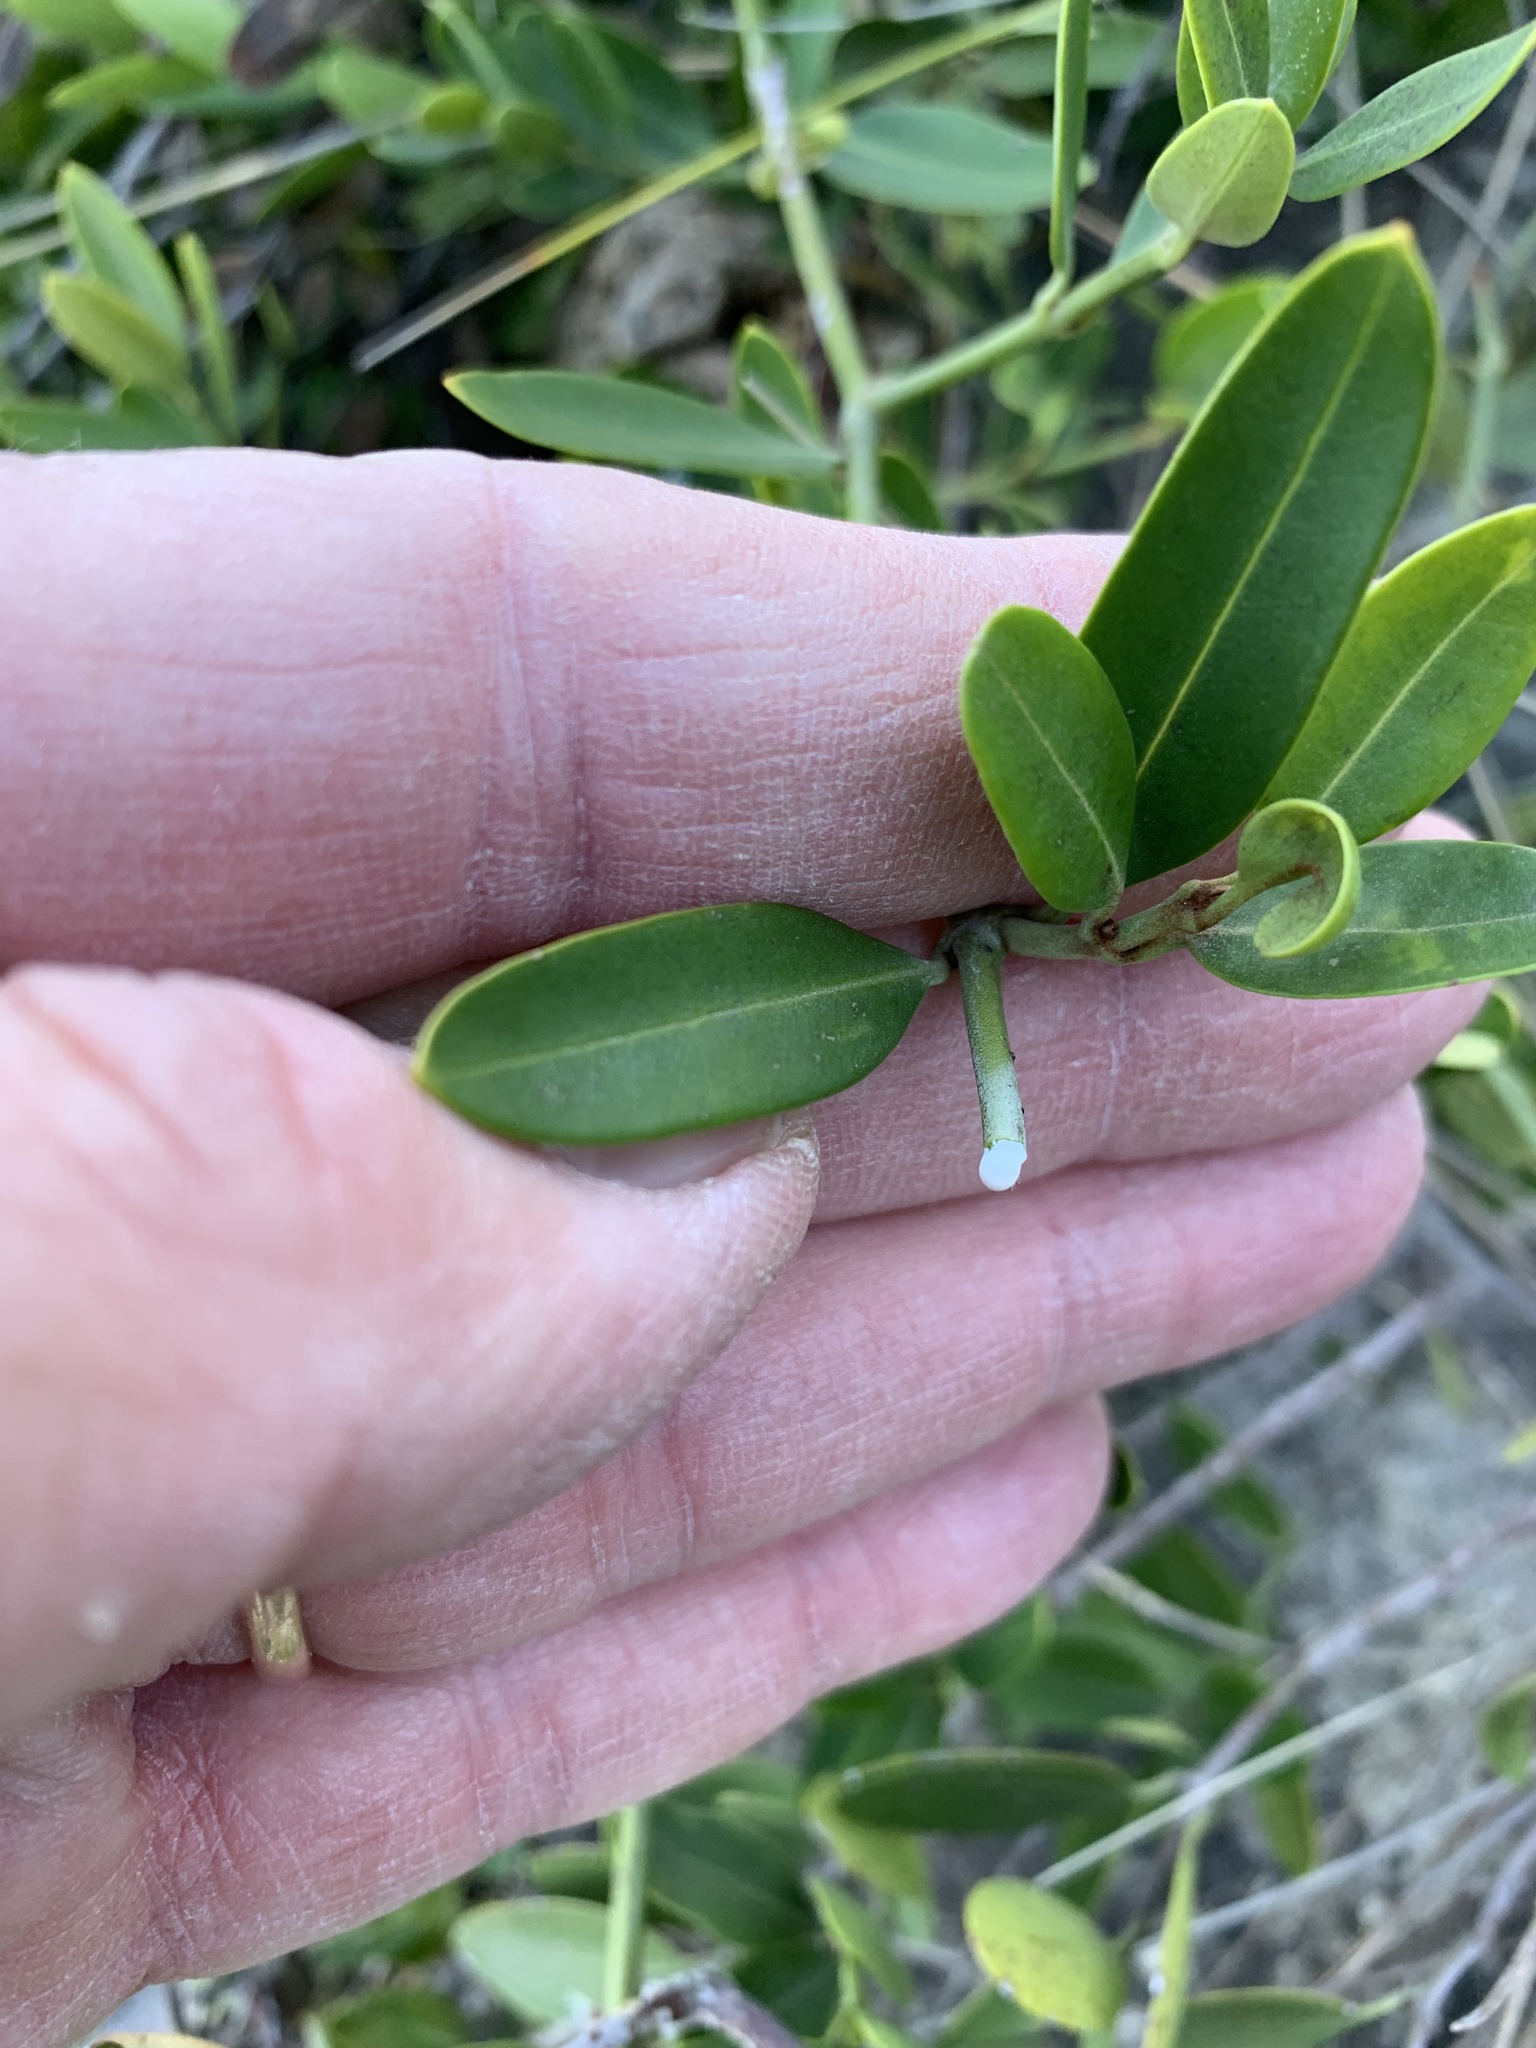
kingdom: Plantae
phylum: Tracheophyta
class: Magnoliopsida
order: Gentianales
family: Apocynaceae
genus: Secamone
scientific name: Secamone alpini
